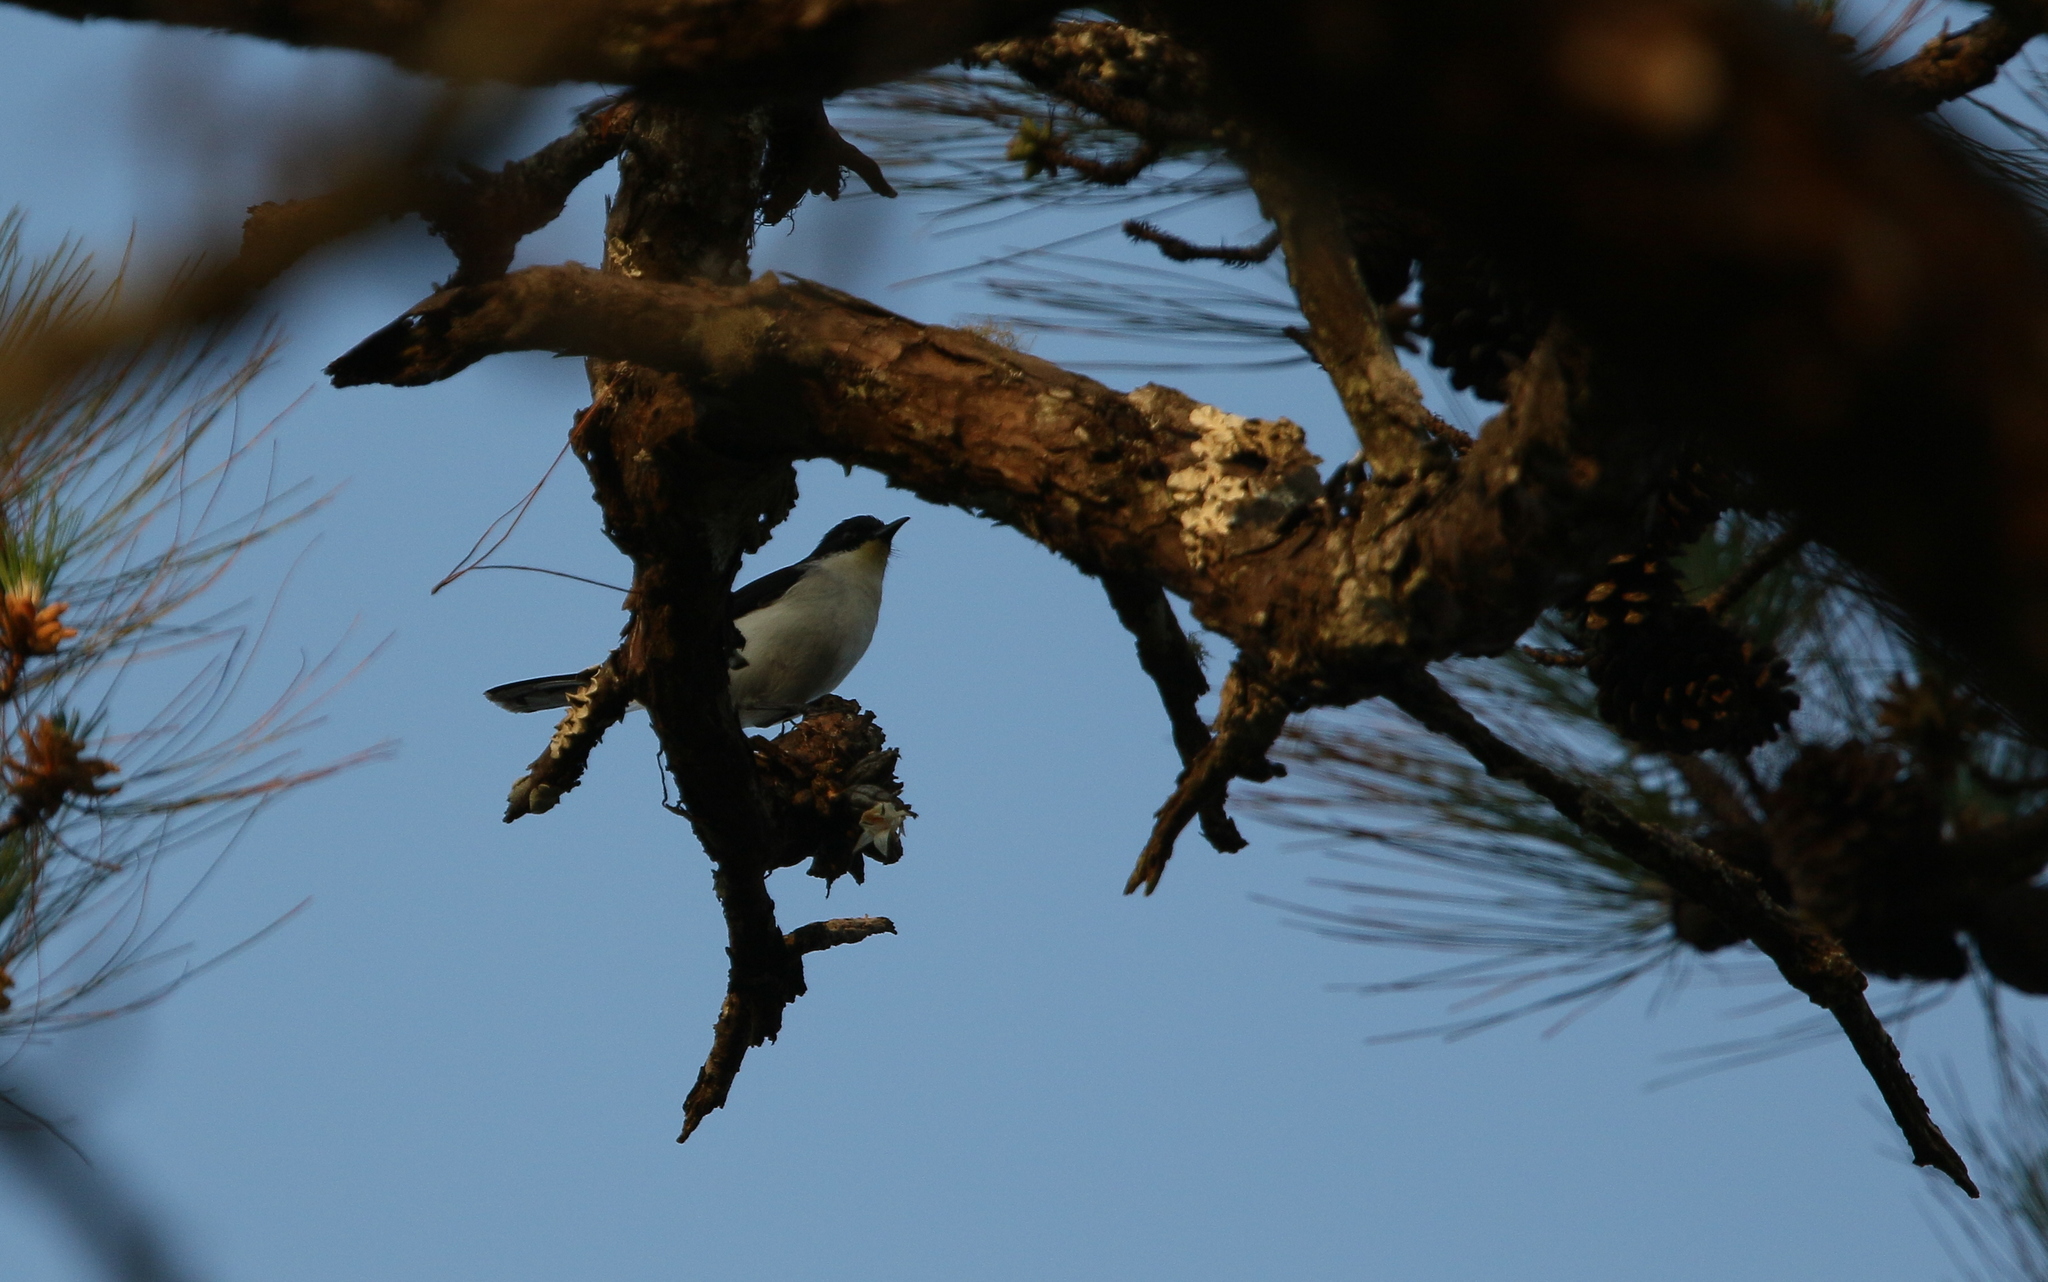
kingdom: Animalia
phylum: Chordata
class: Aves
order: Passeriformes
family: Leiothrichidae
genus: Heterophasia
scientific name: Heterophasia melanoleuca
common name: Dark-backed sibia
